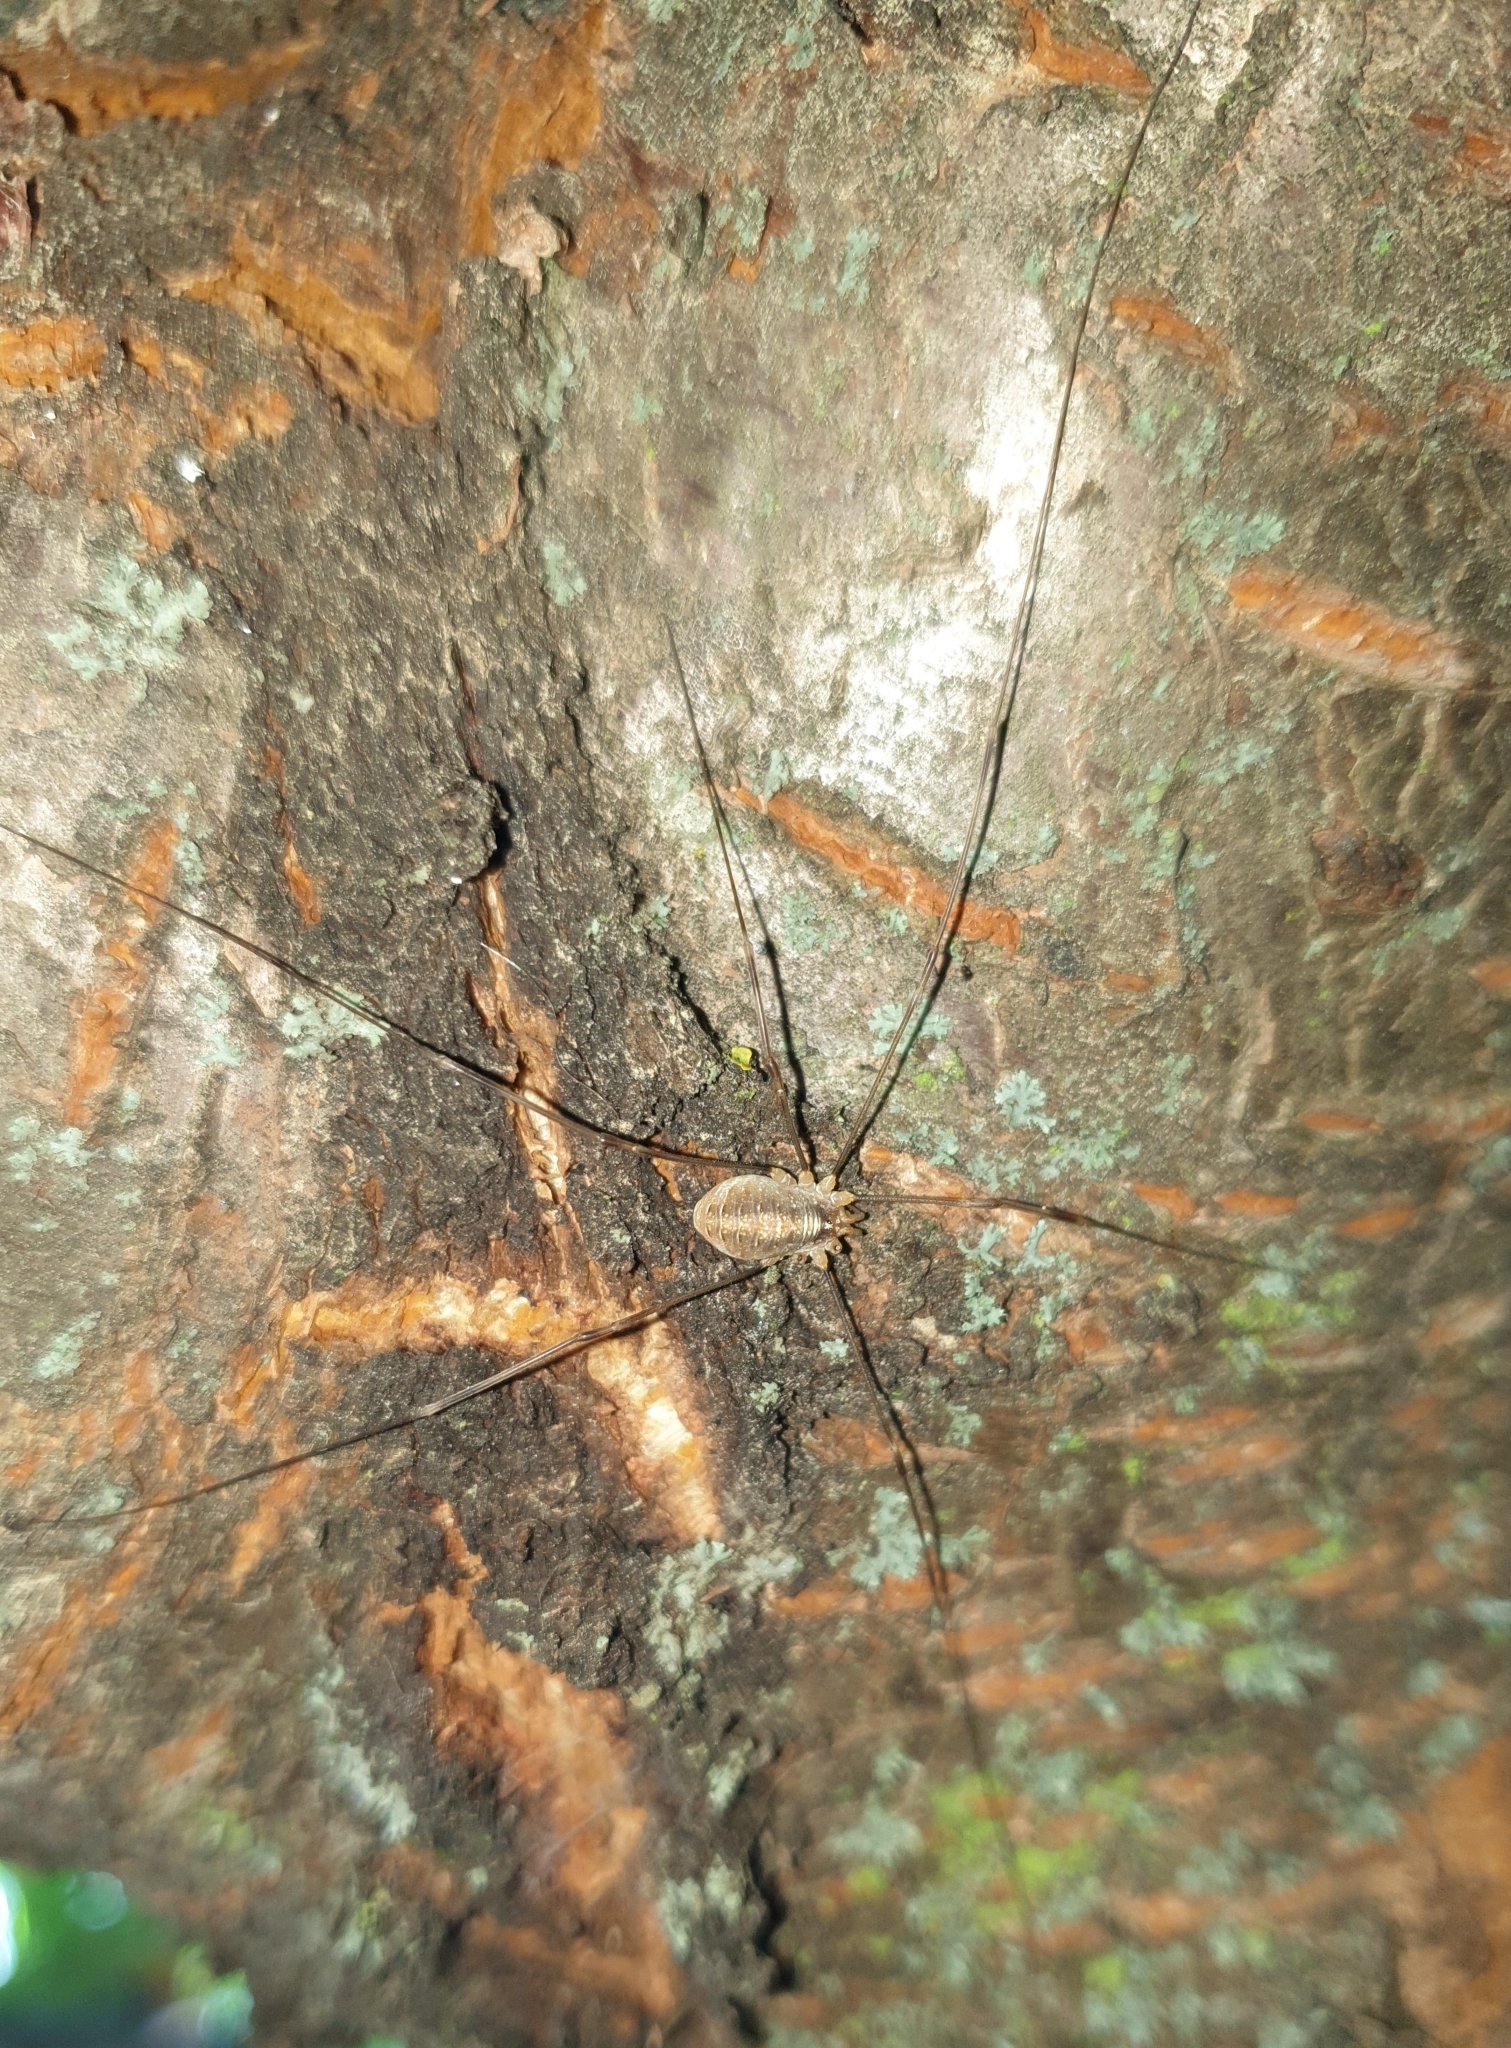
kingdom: Animalia
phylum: Arthropoda
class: Arachnida
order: Opiliones
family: Phalangiidae
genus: Opilio
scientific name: Opilio canestrinii
